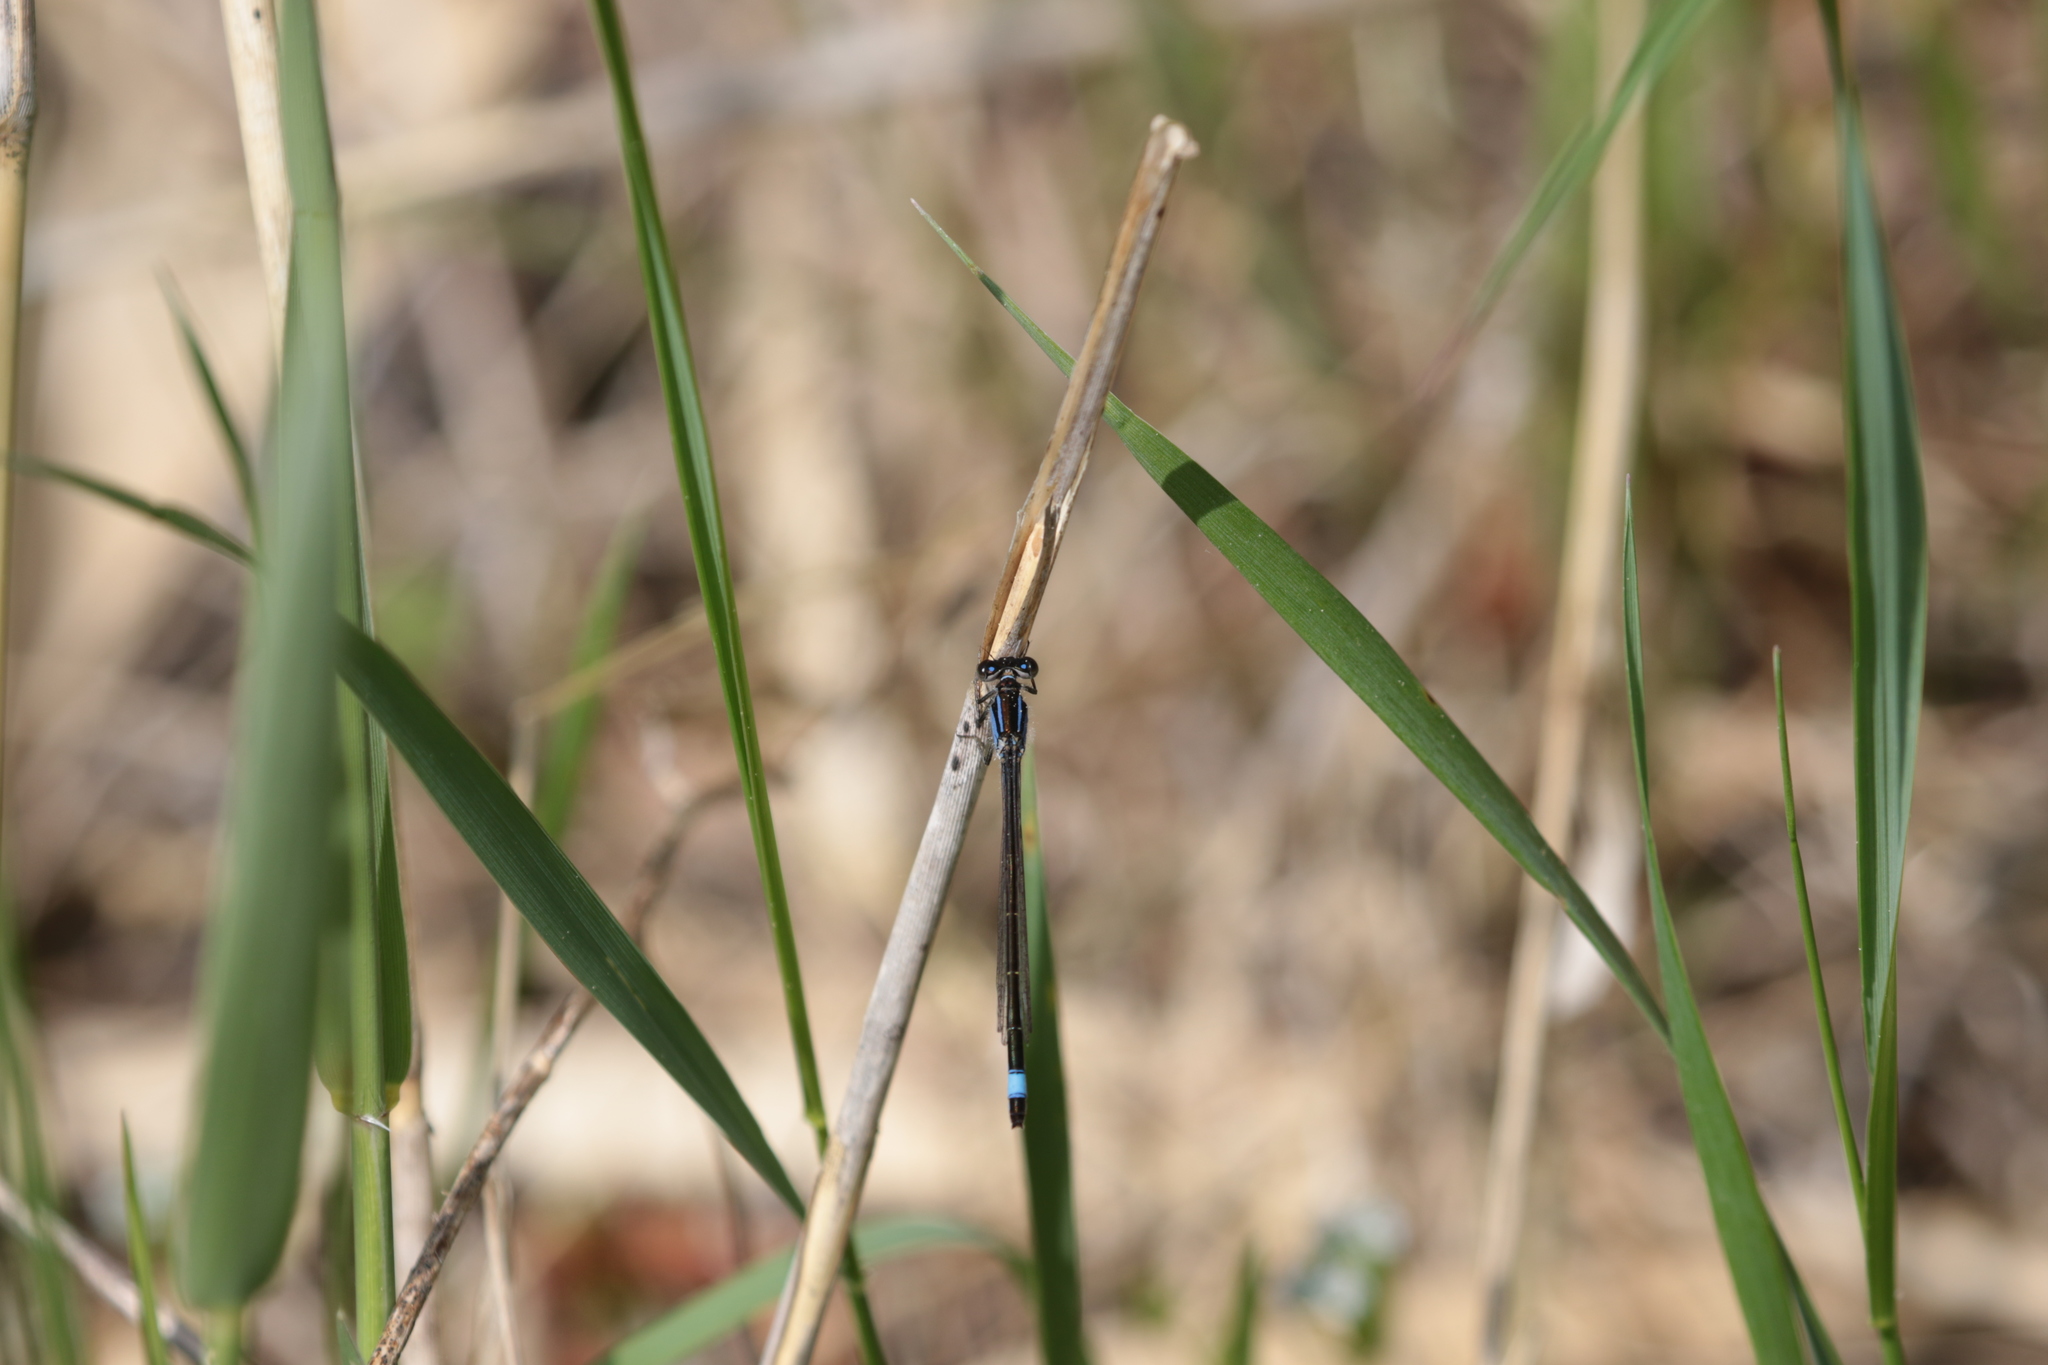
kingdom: Animalia
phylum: Arthropoda
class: Insecta
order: Odonata
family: Coenagrionidae
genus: Ischnura
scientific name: Ischnura elegans
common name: Blue-tailed damselfly
